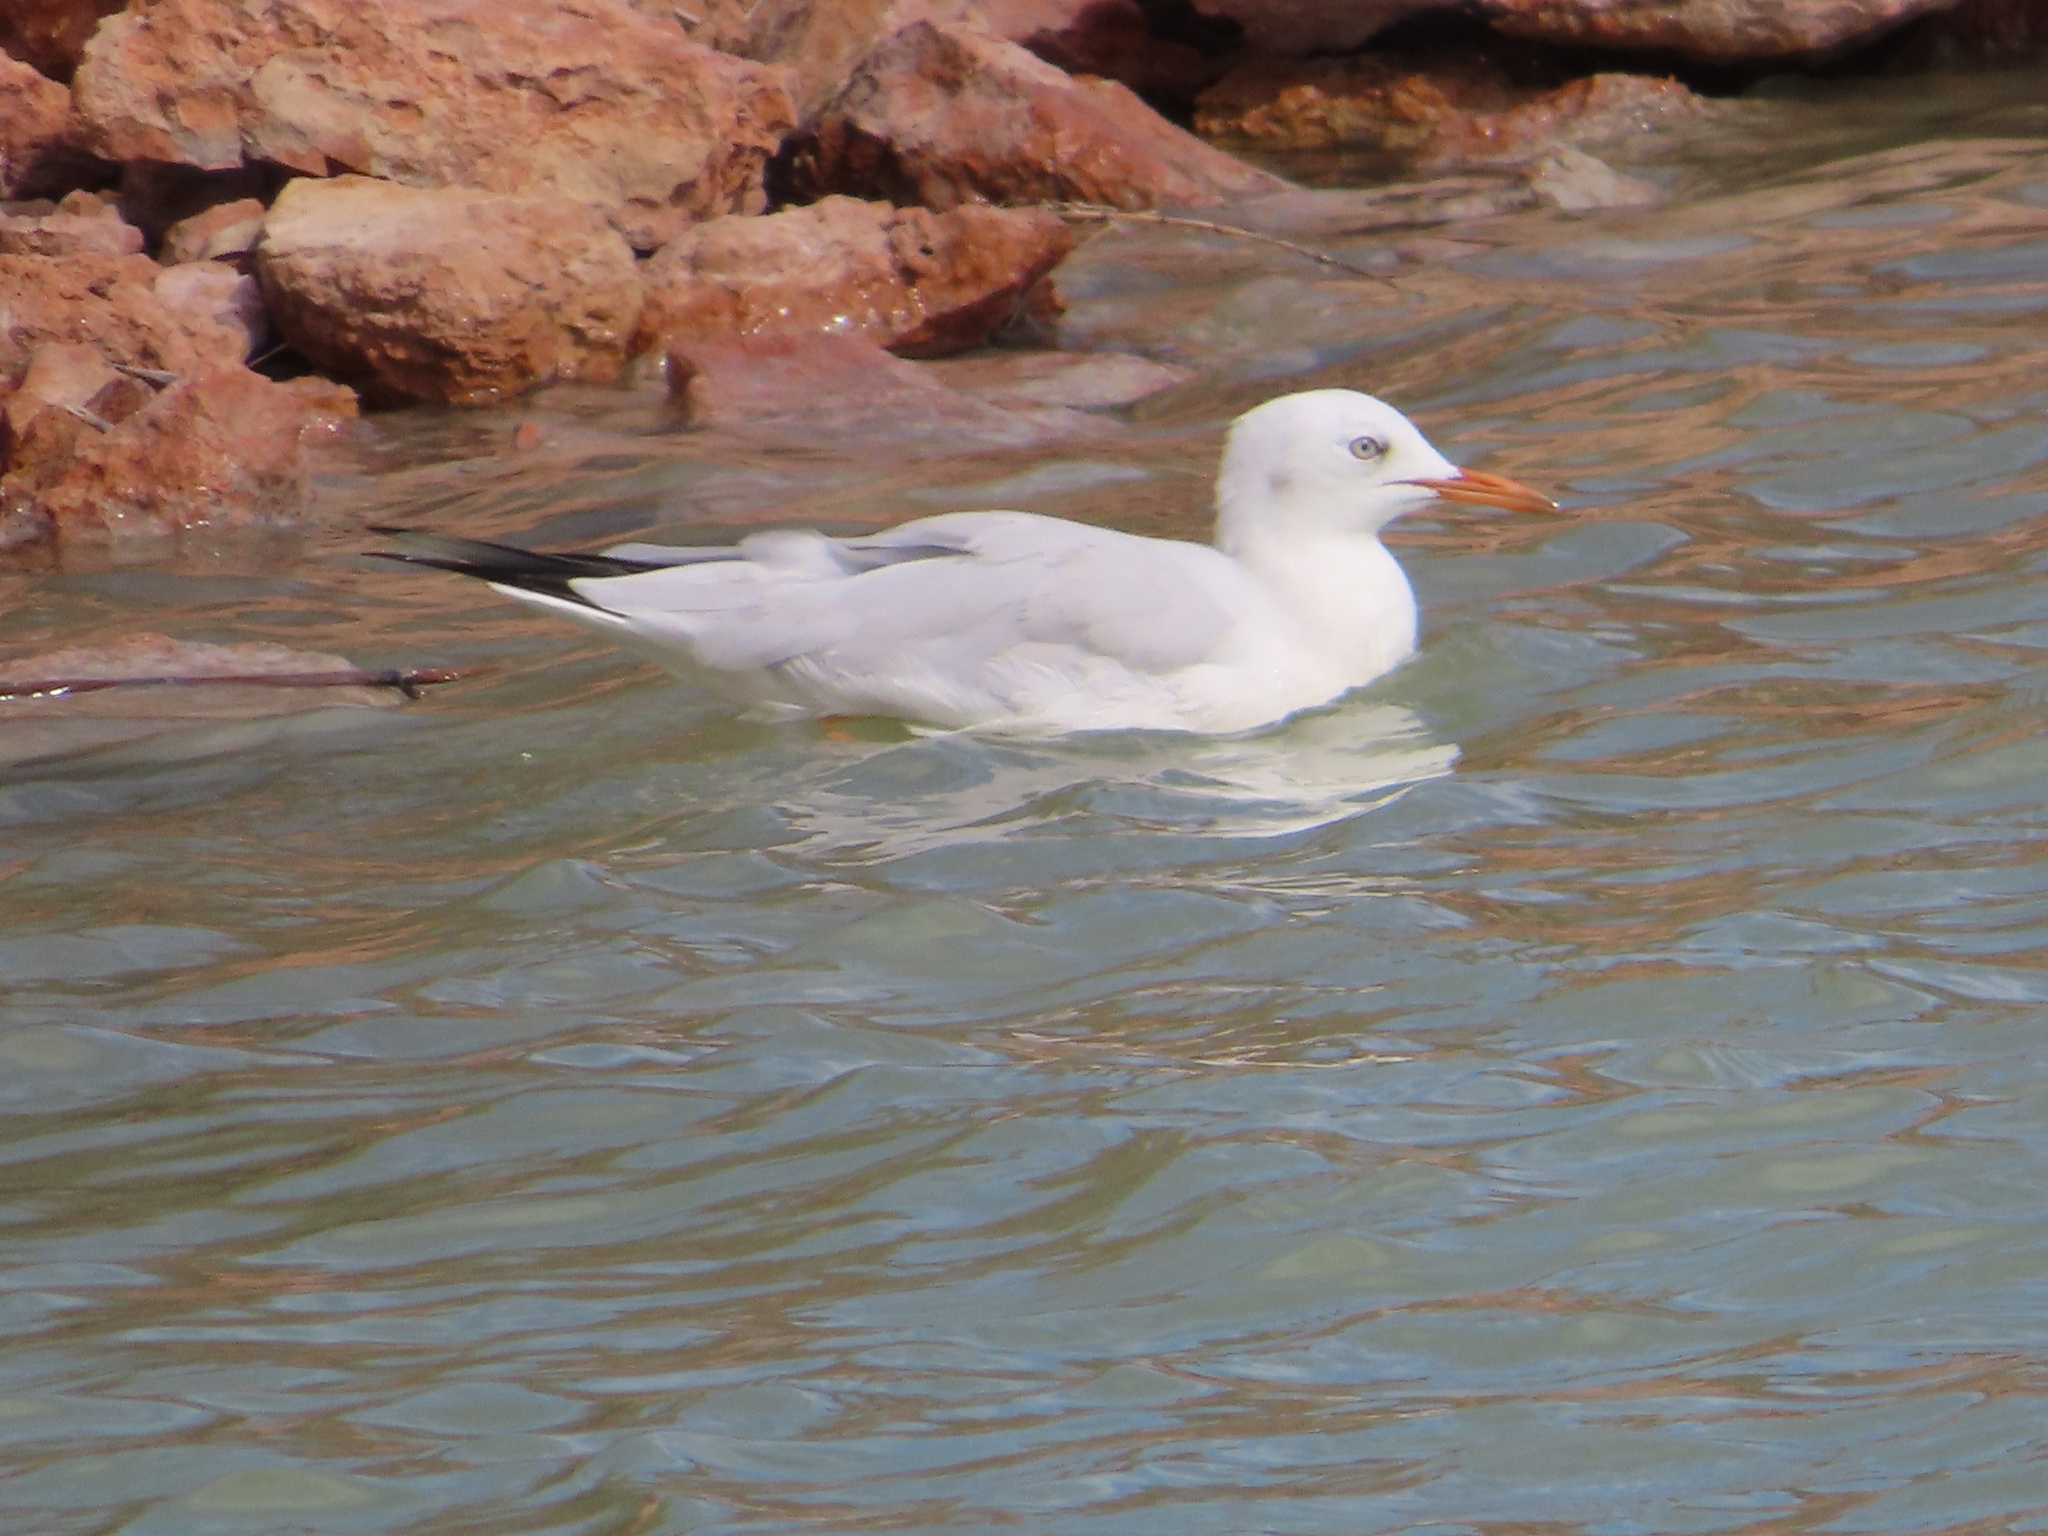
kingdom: Animalia
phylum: Chordata
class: Aves
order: Charadriiformes
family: Laridae
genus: Chroicocephalus
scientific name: Chroicocephalus genei
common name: Slender-billed gull
